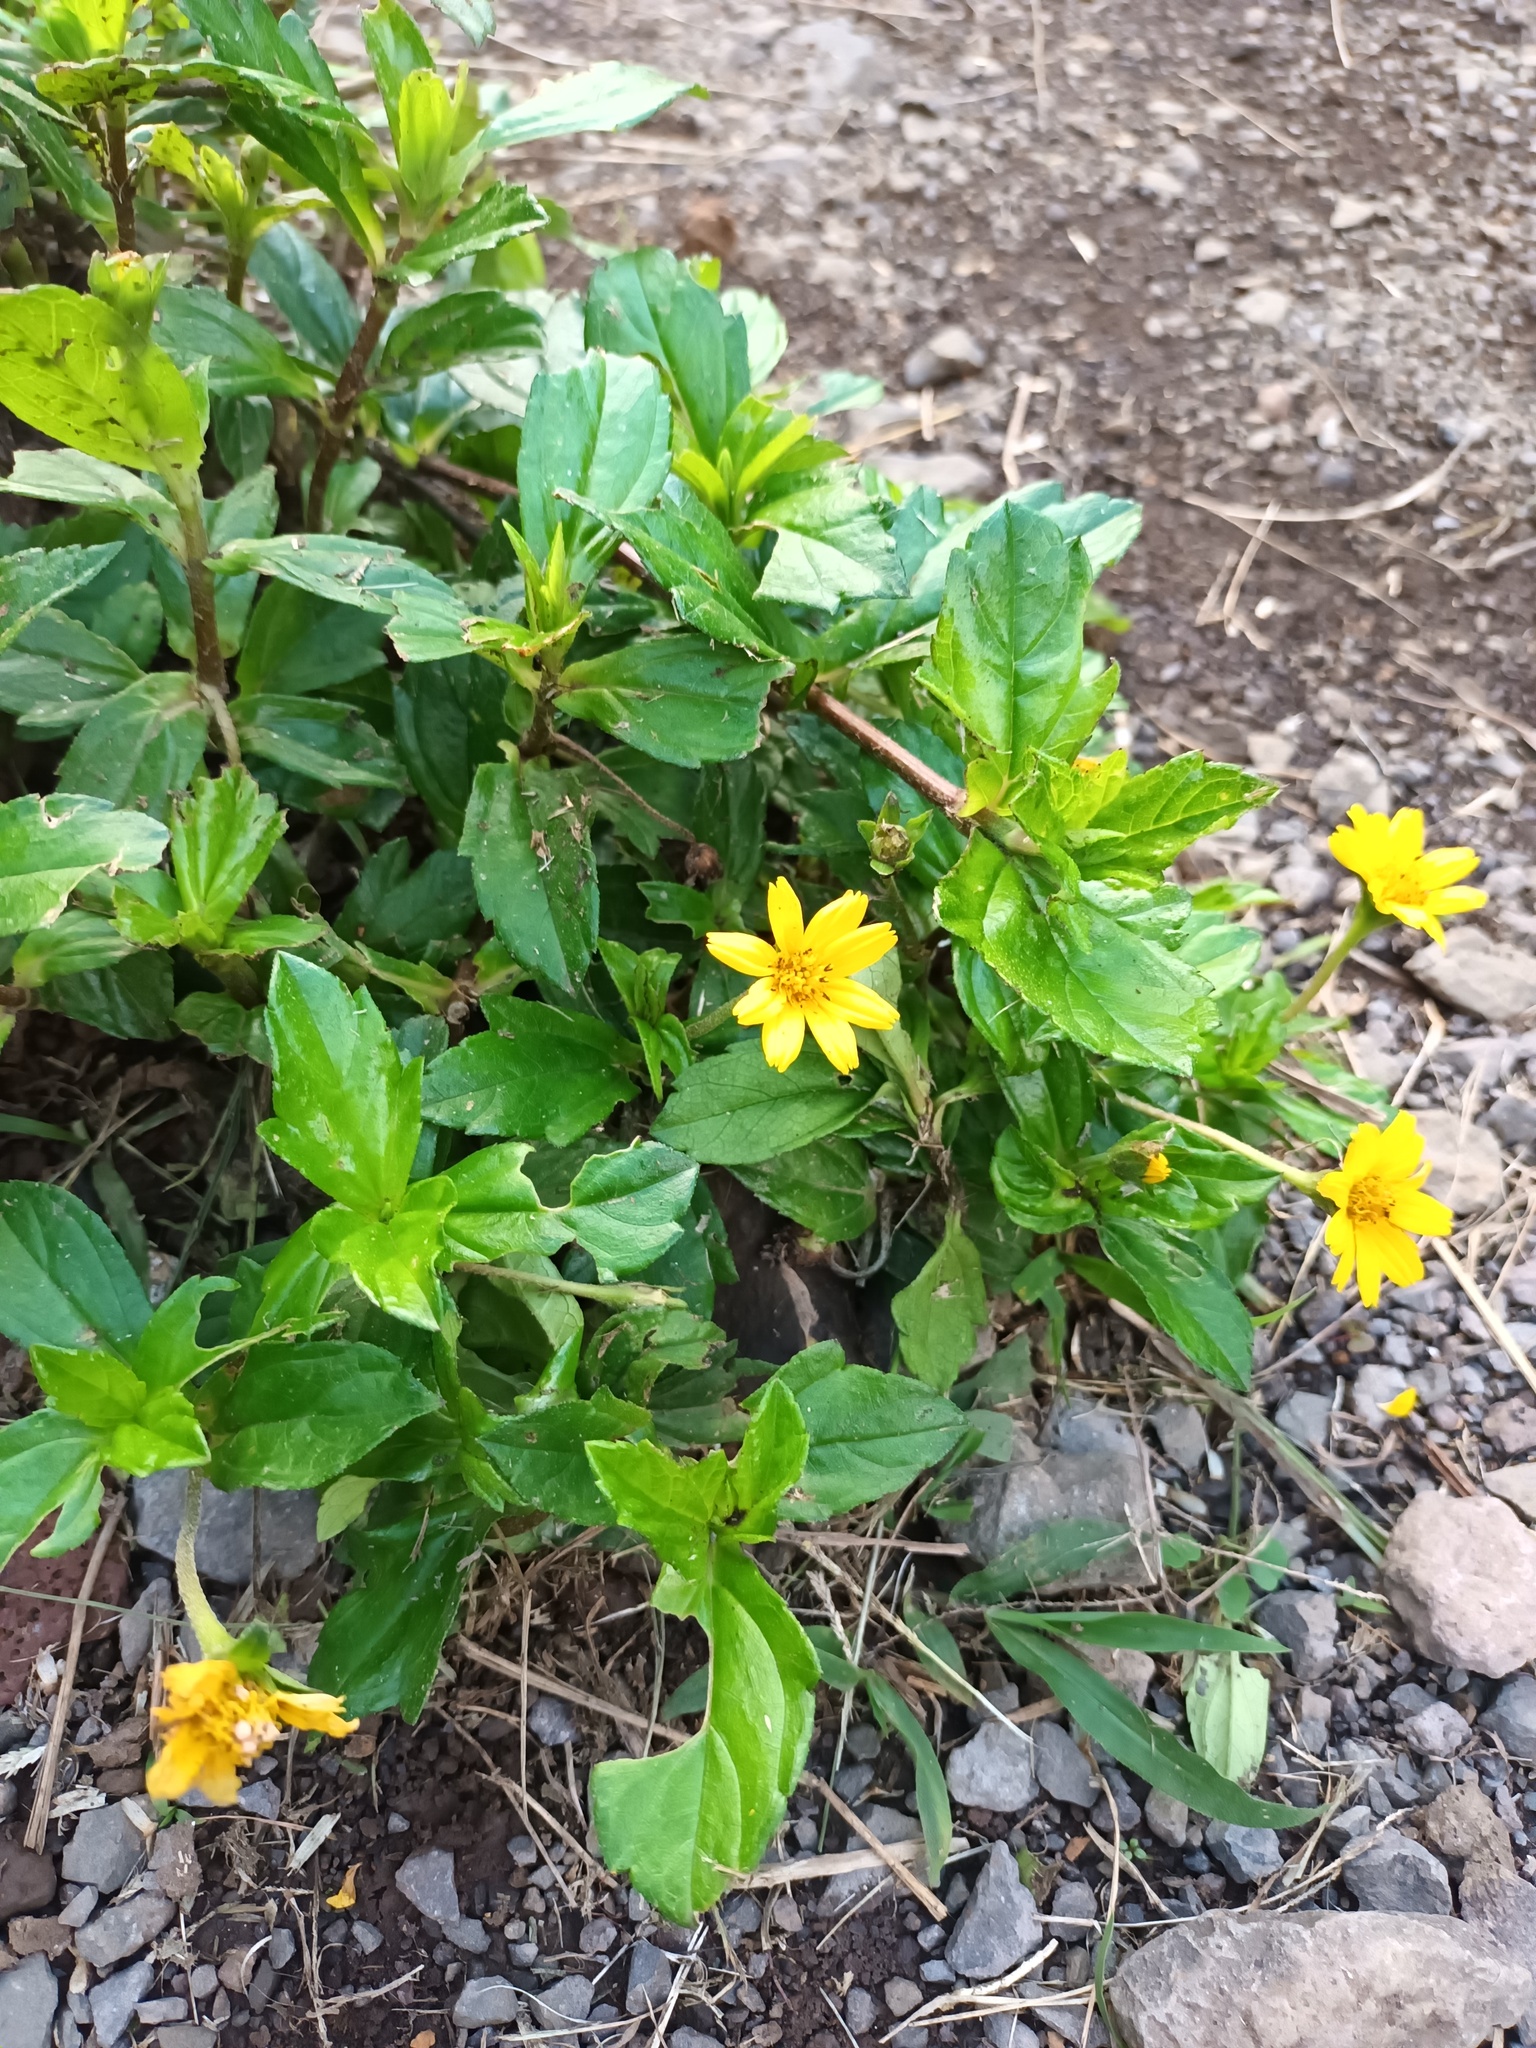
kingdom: Plantae
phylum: Tracheophyta
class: Magnoliopsida
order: Asterales
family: Asteraceae
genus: Sphagneticola
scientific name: Sphagneticola trilobata
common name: Bay biscayne creeping-oxeye
